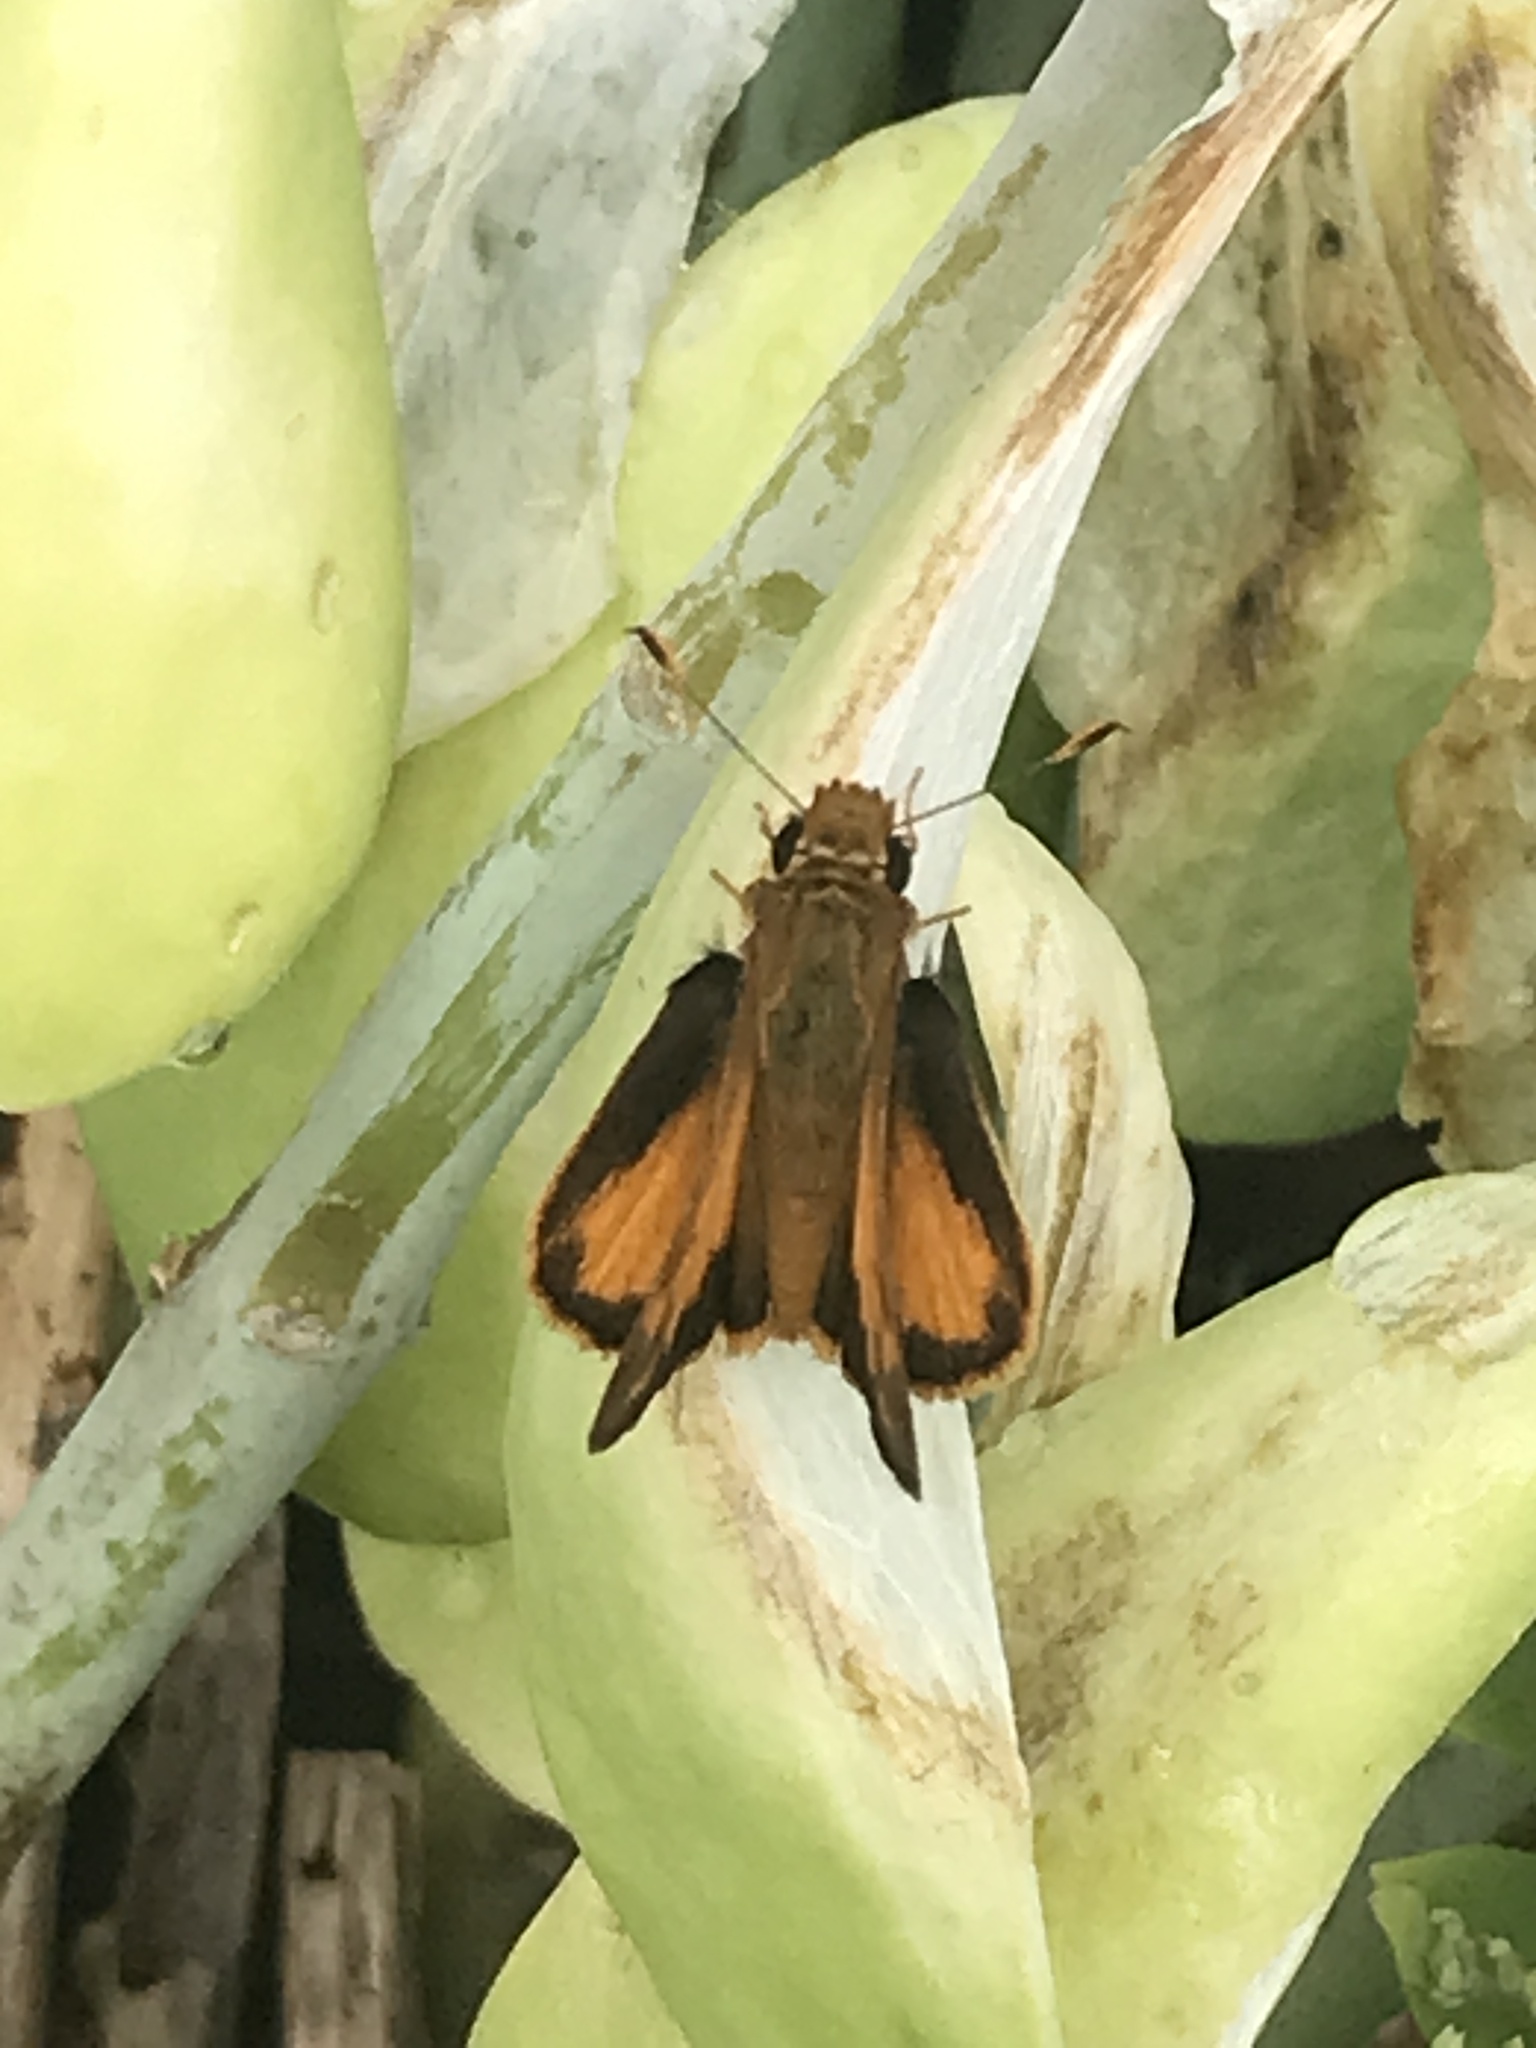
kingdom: Animalia
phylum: Arthropoda
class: Insecta
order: Lepidoptera
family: Hesperiidae
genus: Lon
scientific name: Lon zabulon
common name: Zabulon skipper
